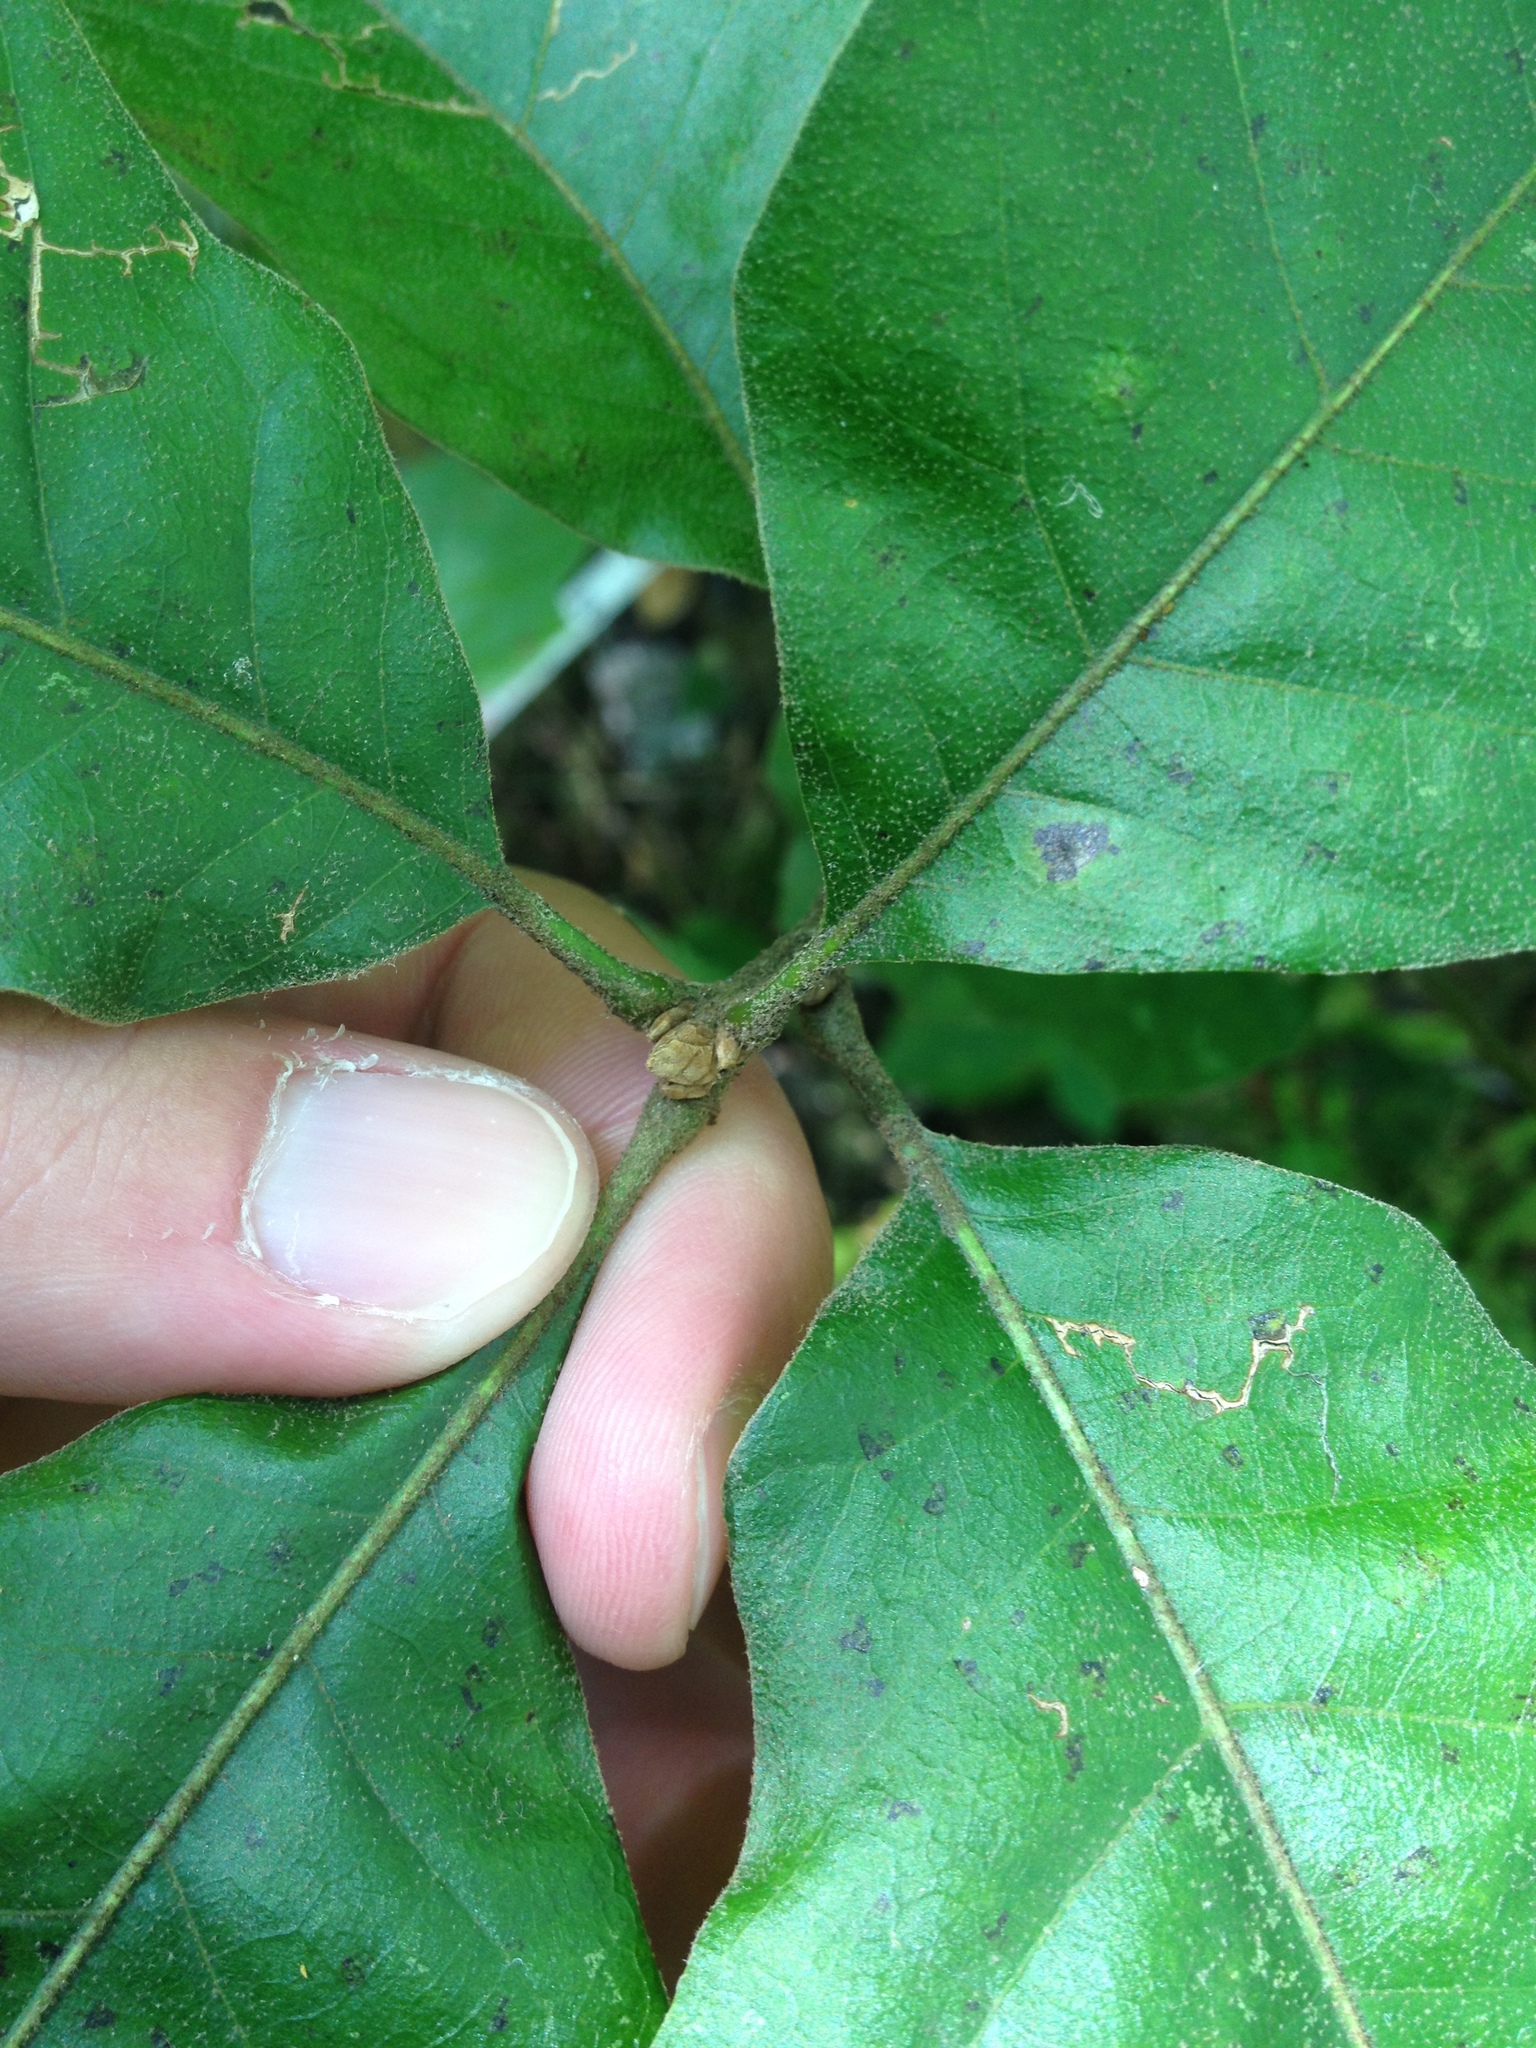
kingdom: Plantae
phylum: Tracheophyta
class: Magnoliopsida
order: Fagales
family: Fagaceae
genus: Quercus
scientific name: Quercus velutina
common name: Black oak
